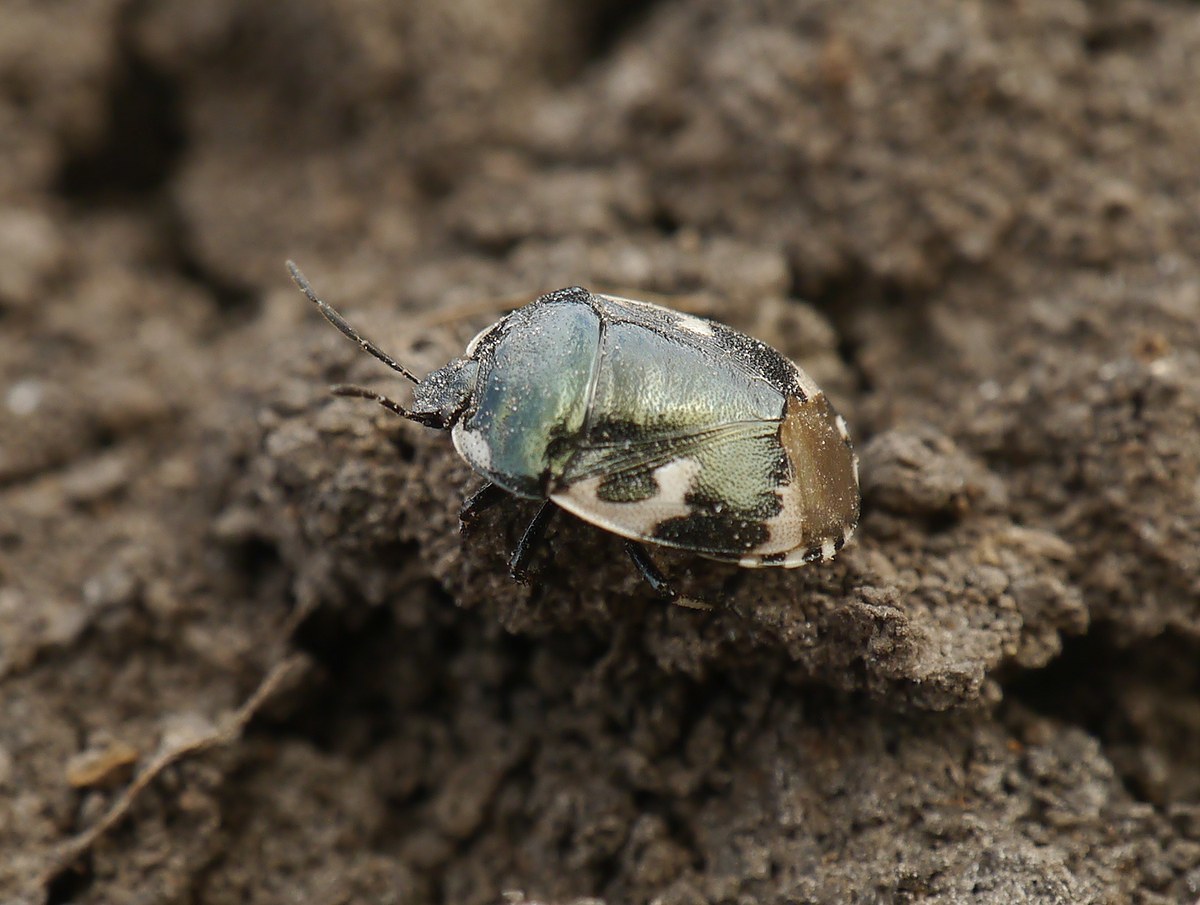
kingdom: Animalia
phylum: Arthropoda
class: Insecta
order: Hemiptera
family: Cydnidae
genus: Tritomegas
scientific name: Tritomegas bicolor
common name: Pied shieldbug
